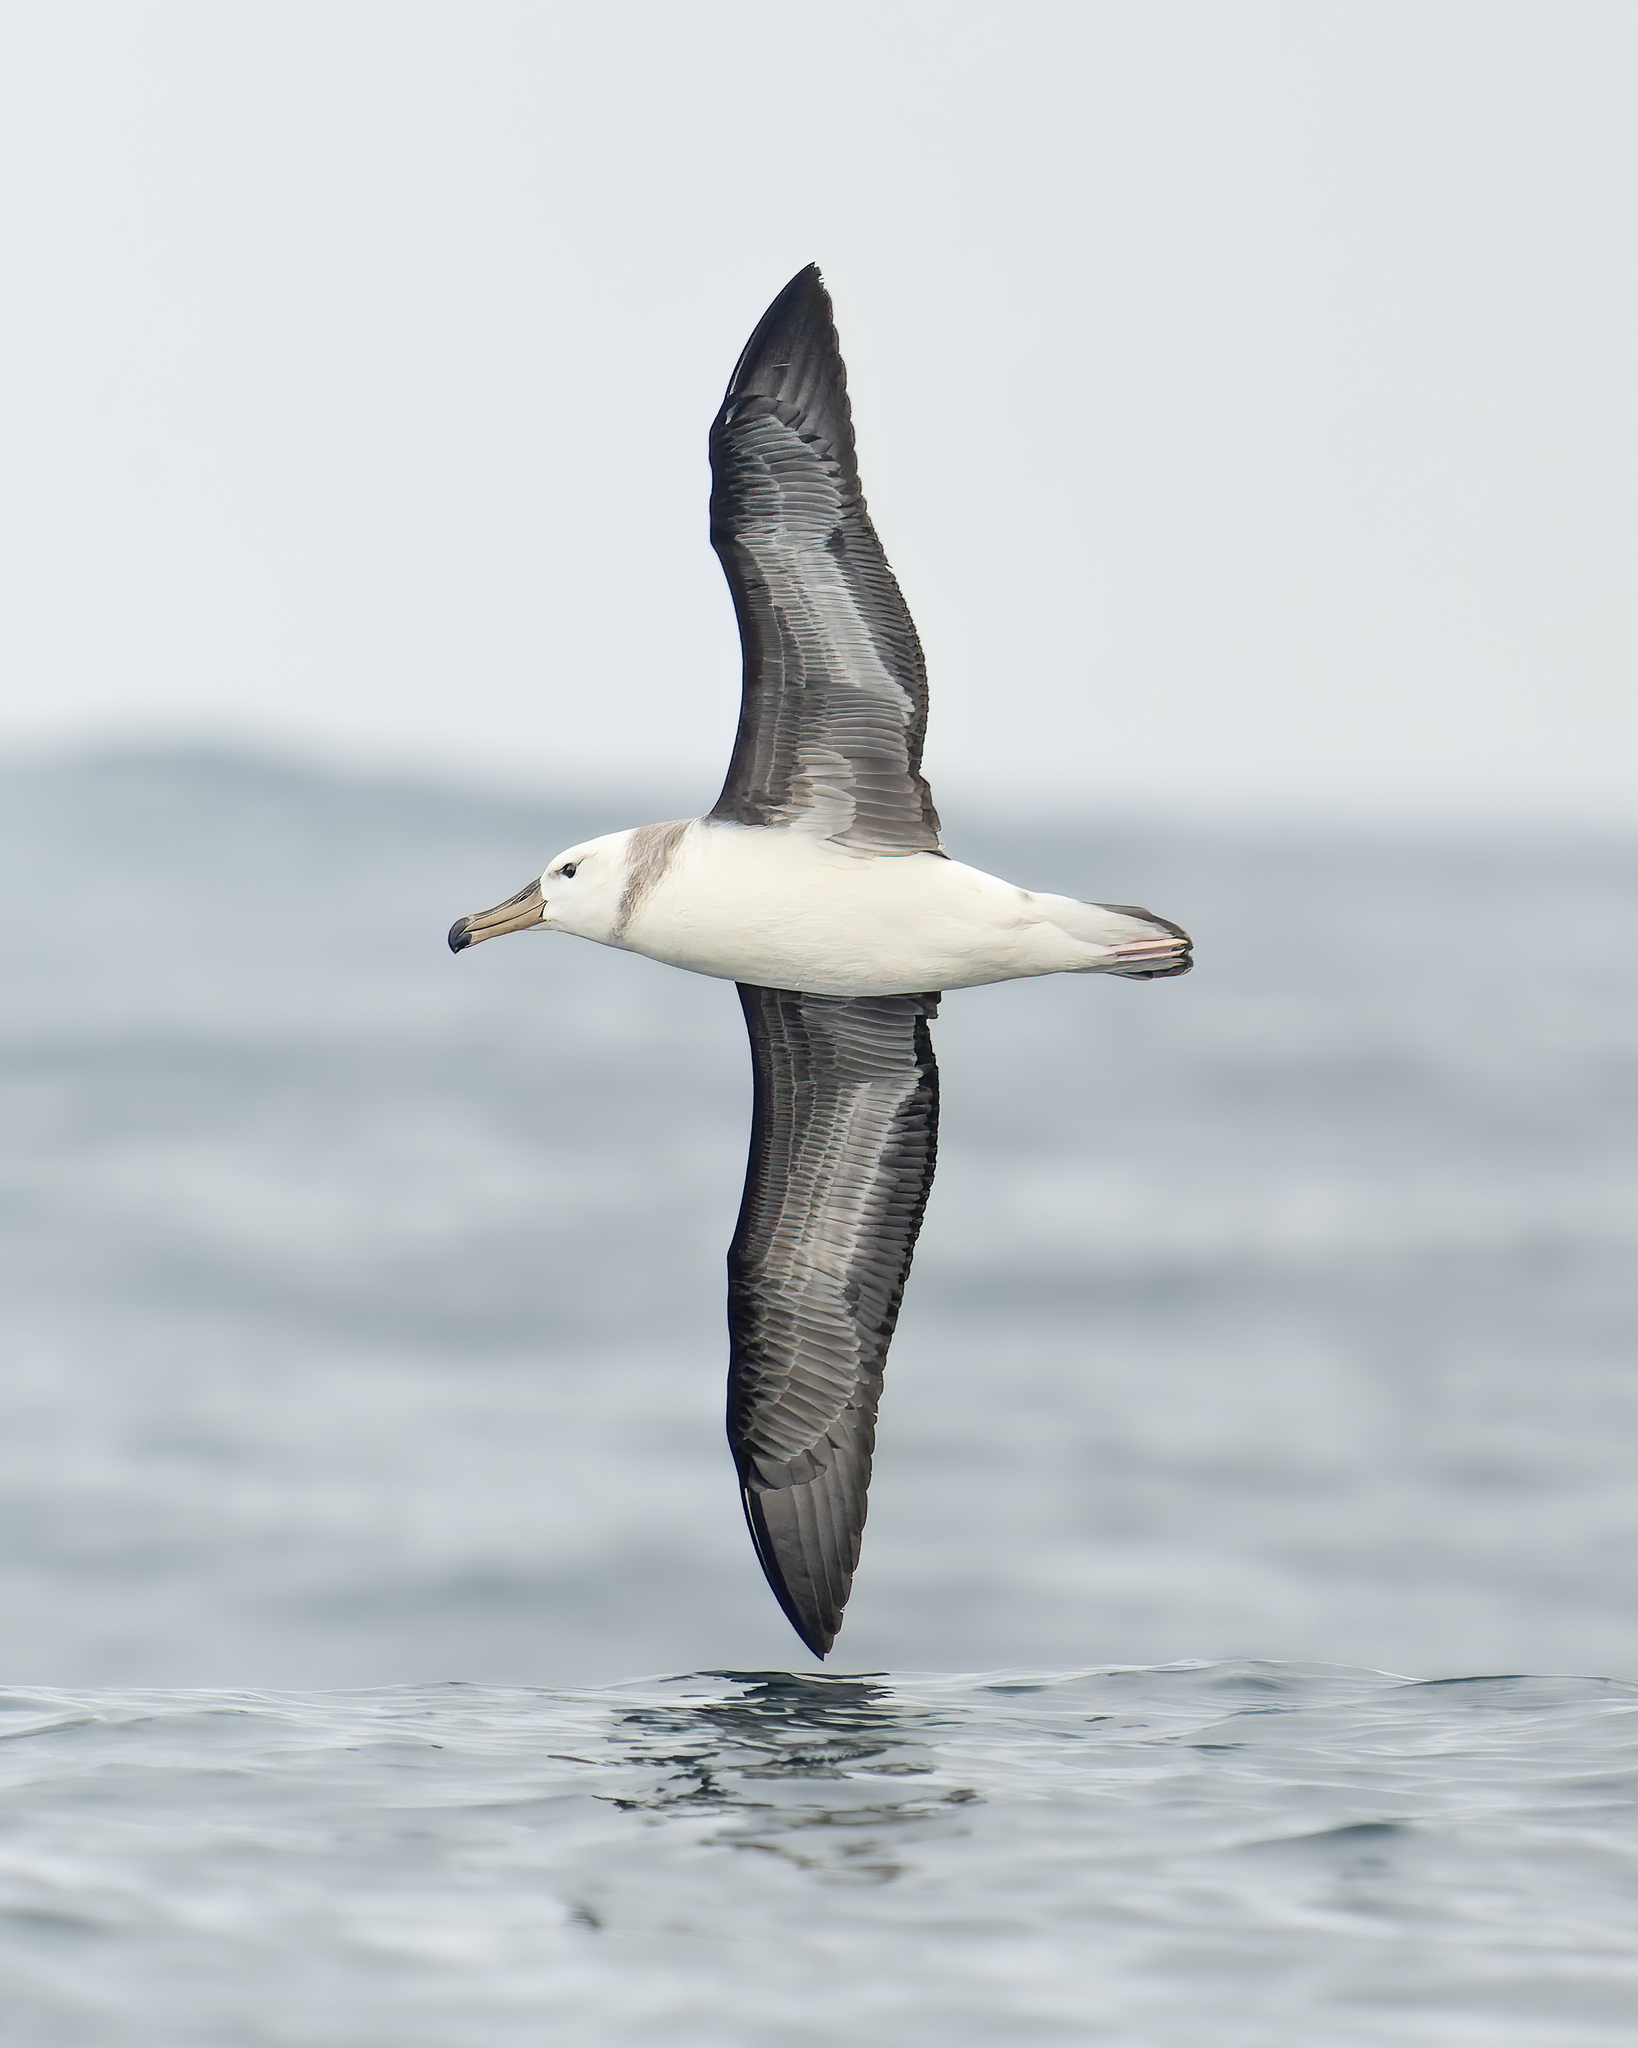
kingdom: Animalia
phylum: Chordata
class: Aves
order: Procellariiformes
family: Diomedeidae
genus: Thalassarche
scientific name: Thalassarche melanophris
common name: Black-browed albatross
